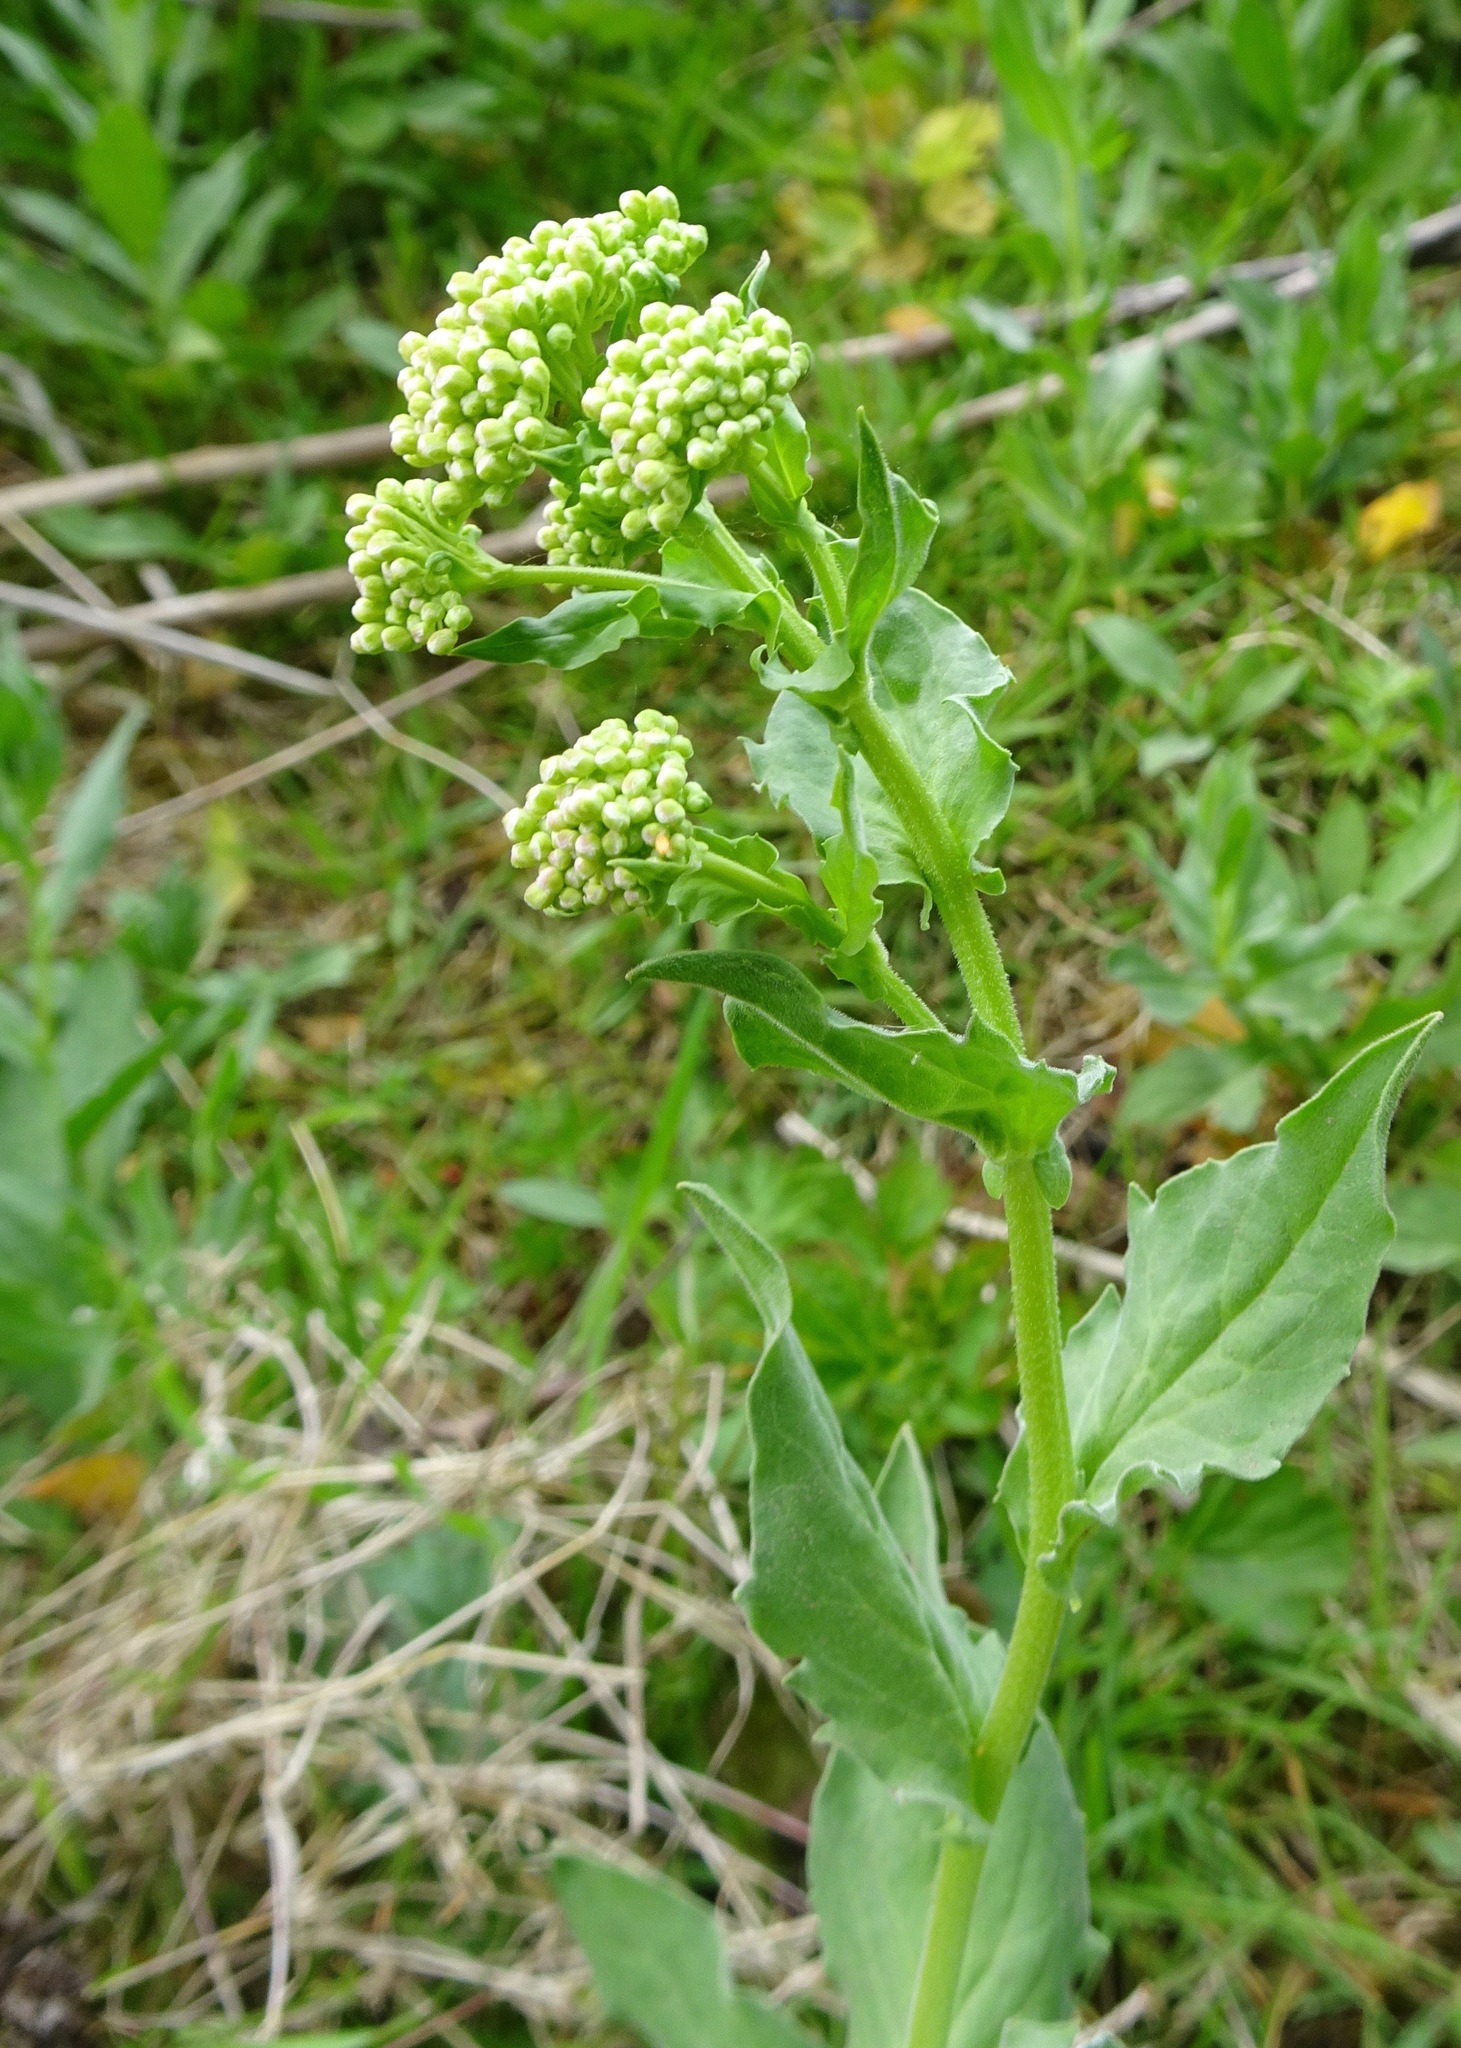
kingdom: Plantae
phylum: Tracheophyta
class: Magnoliopsida
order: Brassicales
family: Brassicaceae
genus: Lepidium
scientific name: Lepidium draba
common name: Hoary cress
